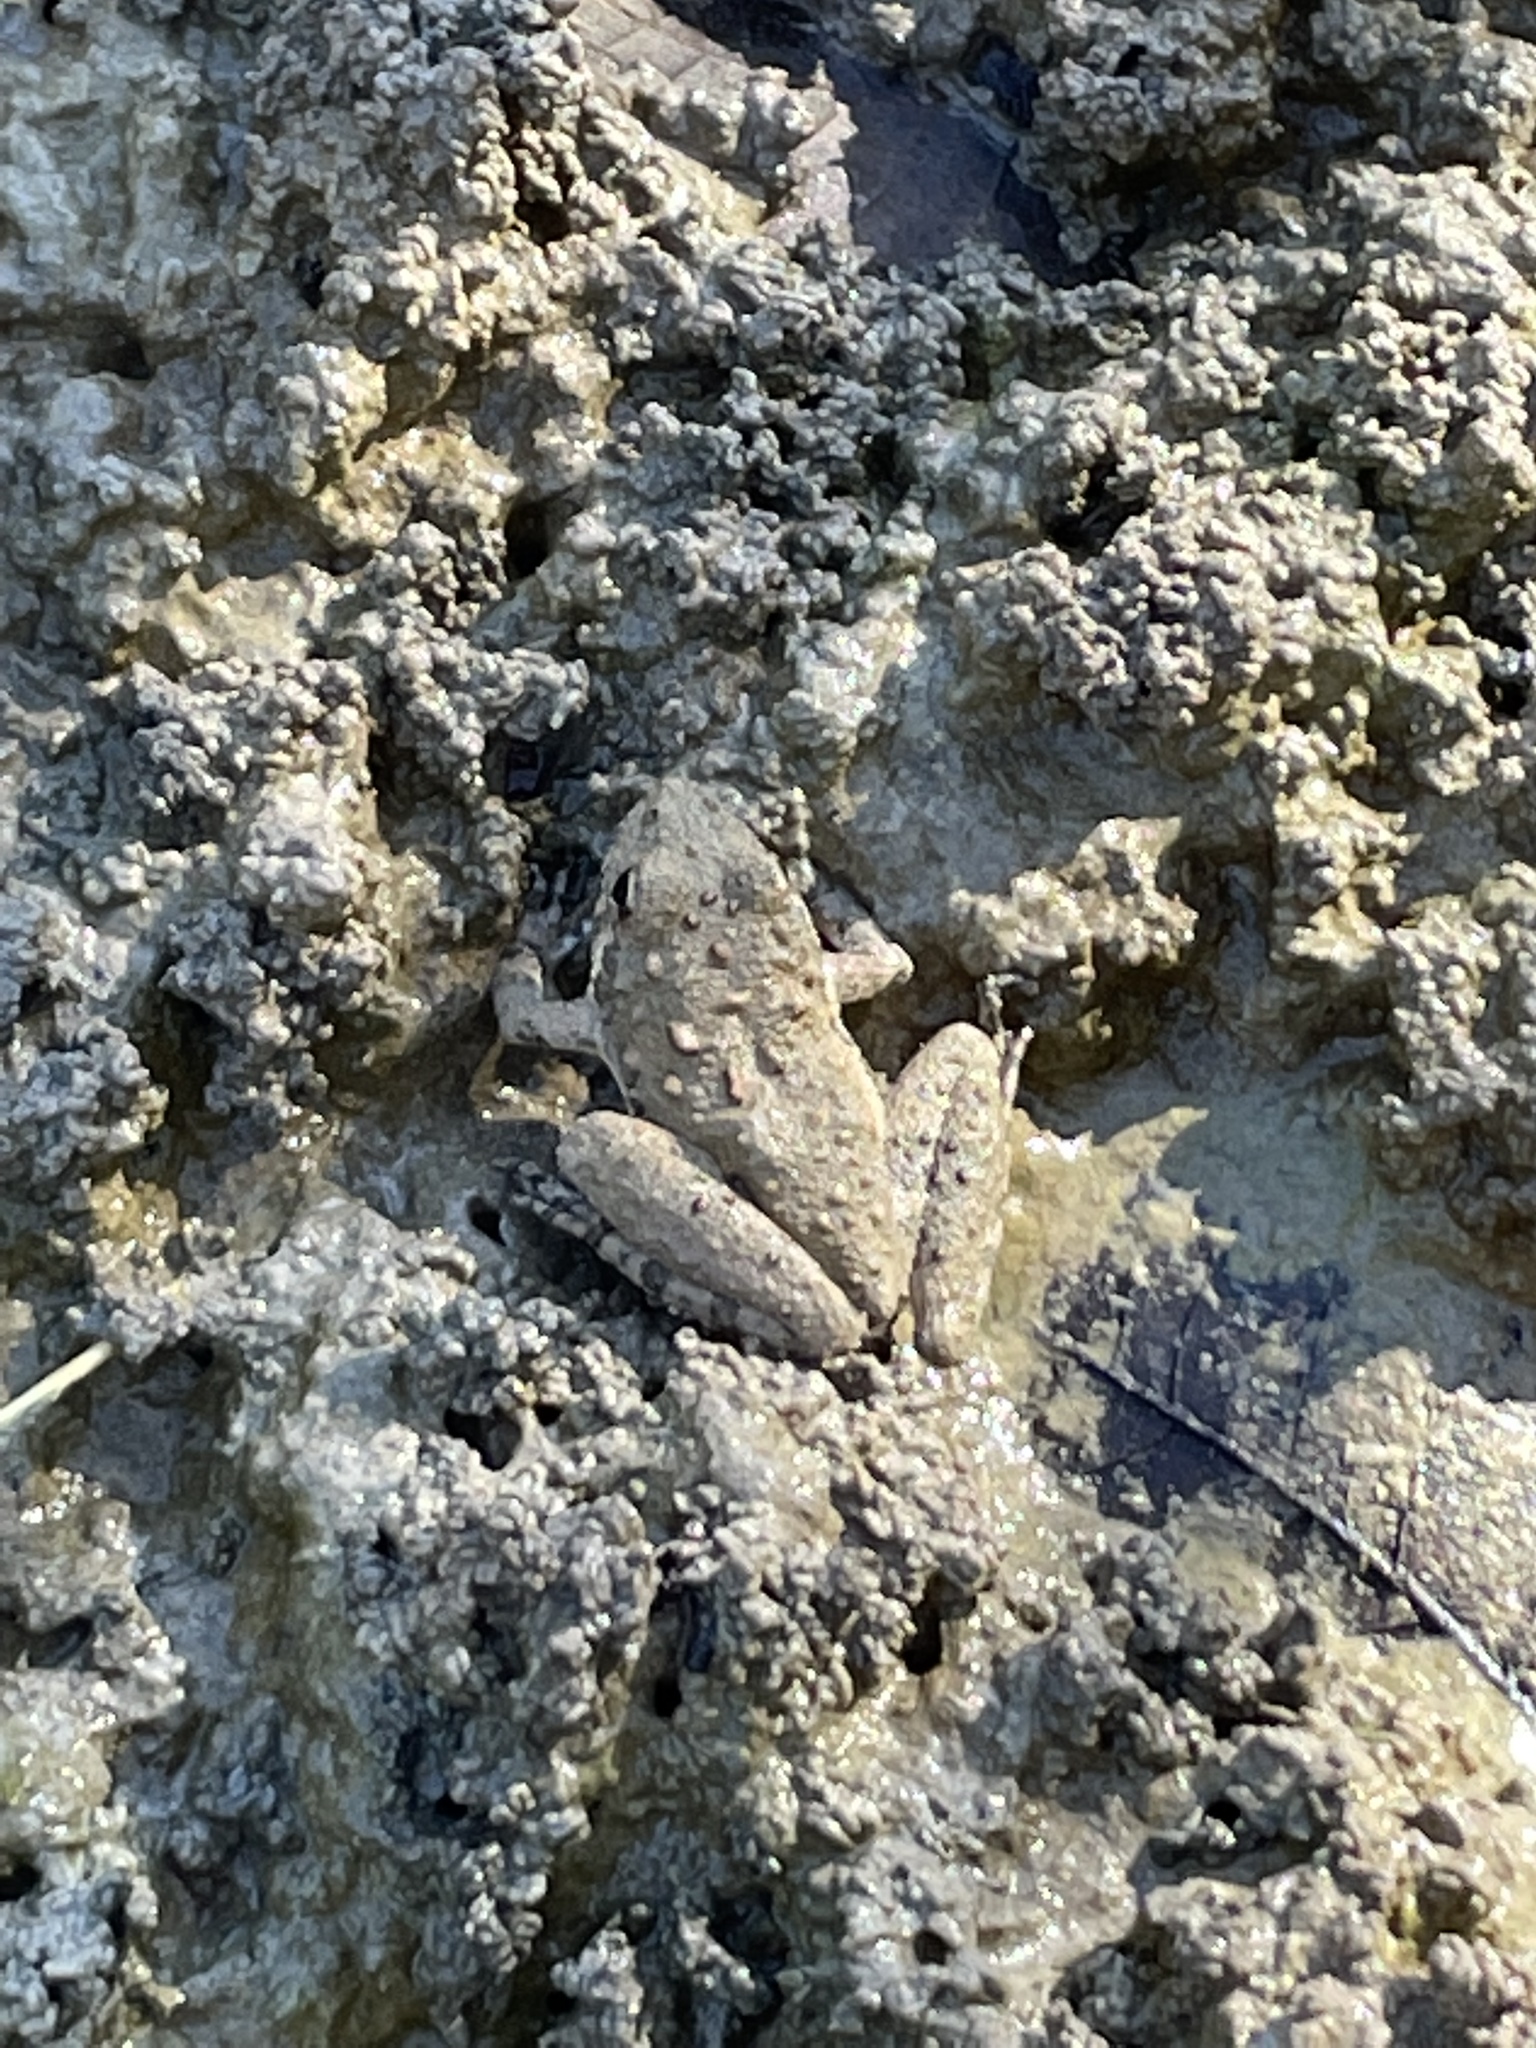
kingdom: Animalia
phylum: Chordata
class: Amphibia
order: Anura
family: Hylidae
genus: Acris
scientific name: Acris blanchardi
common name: Blanchard's cricket frog
